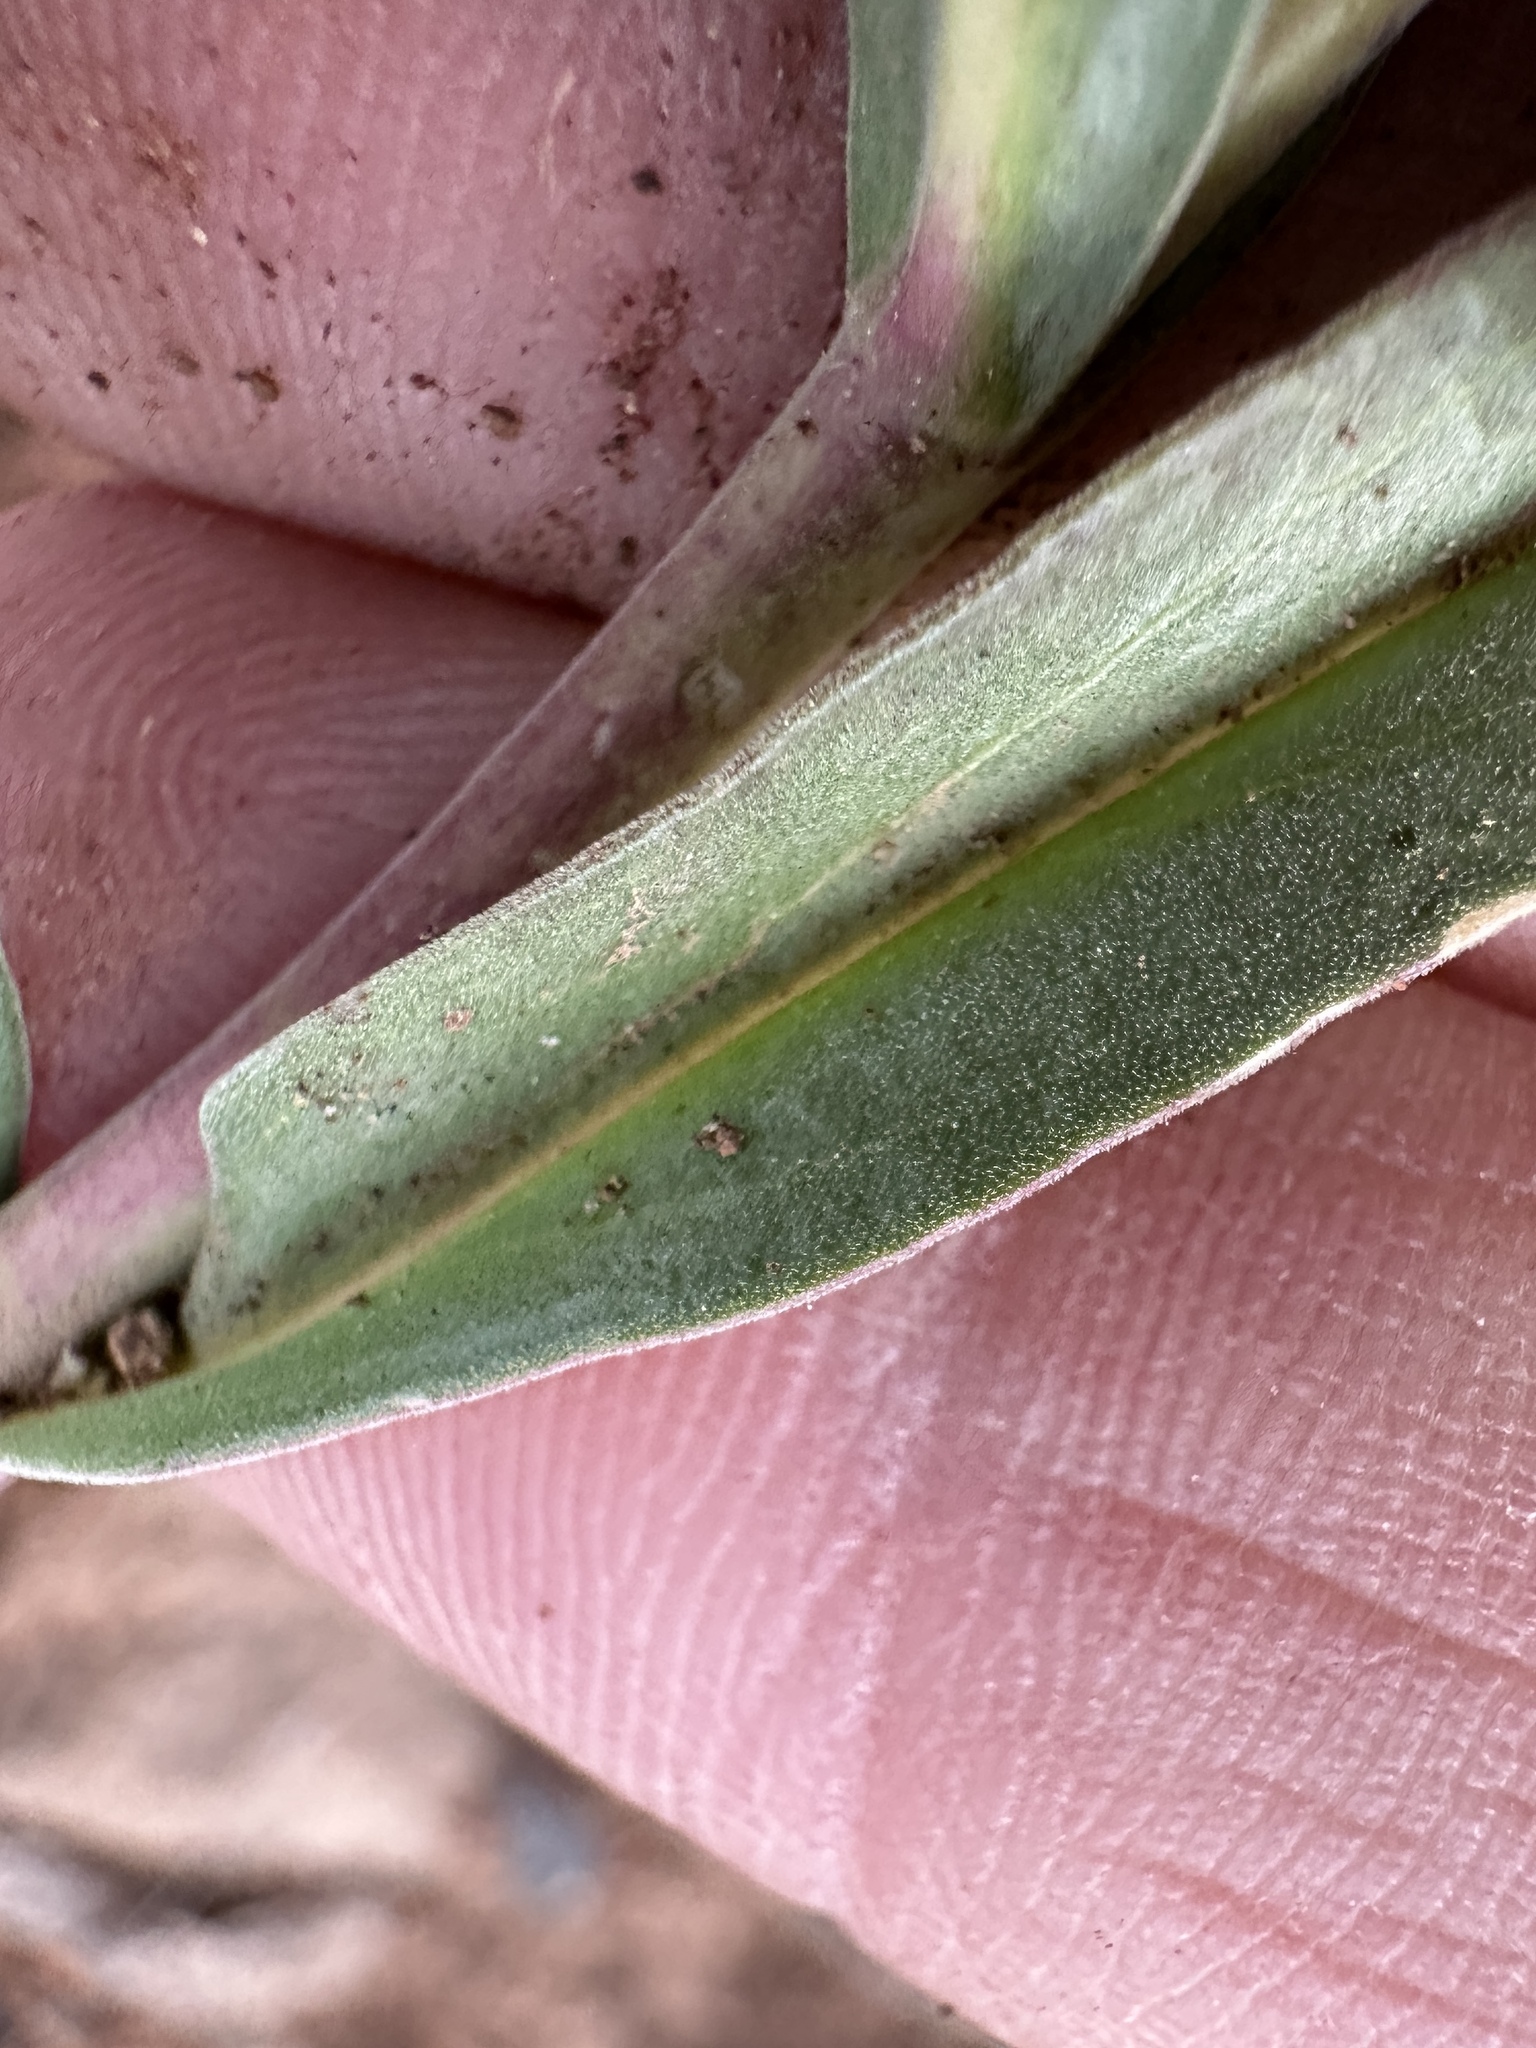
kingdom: Plantae
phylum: Tracheophyta
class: Magnoliopsida
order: Lamiales
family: Plantaginaceae
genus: Penstemon
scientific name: Penstemon roezlii
